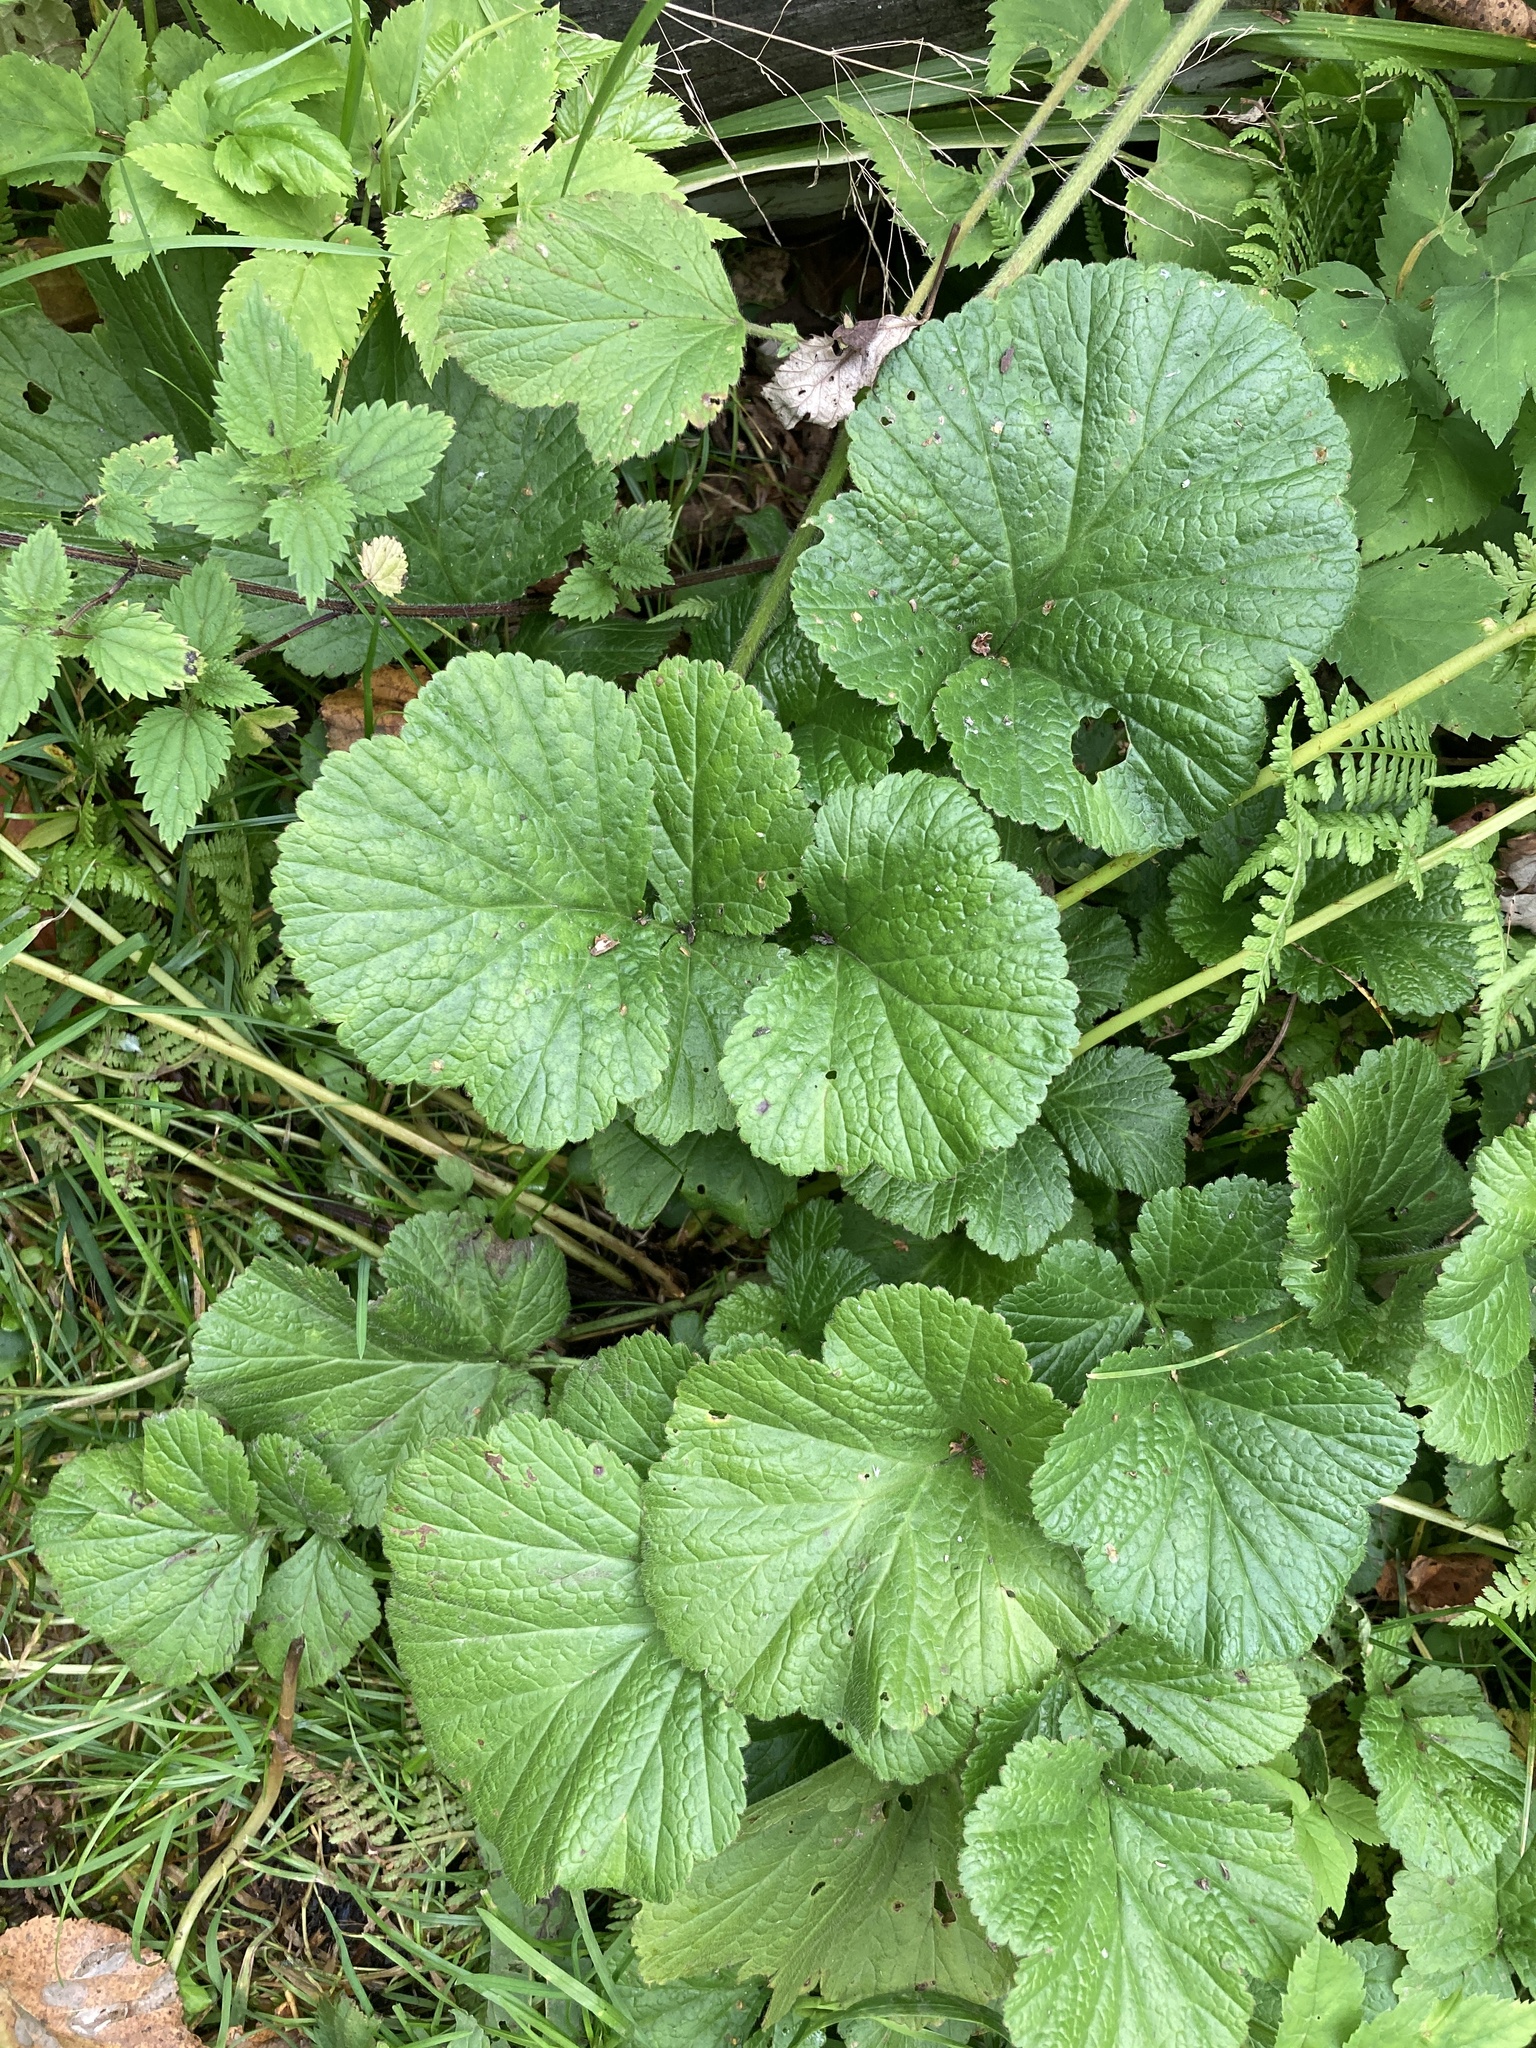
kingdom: Plantae
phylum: Tracheophyta
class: Magnoliopsida
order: Rosales
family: Rosaceae
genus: Geum
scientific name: Geum macrophyllum
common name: Large-leaved avens
